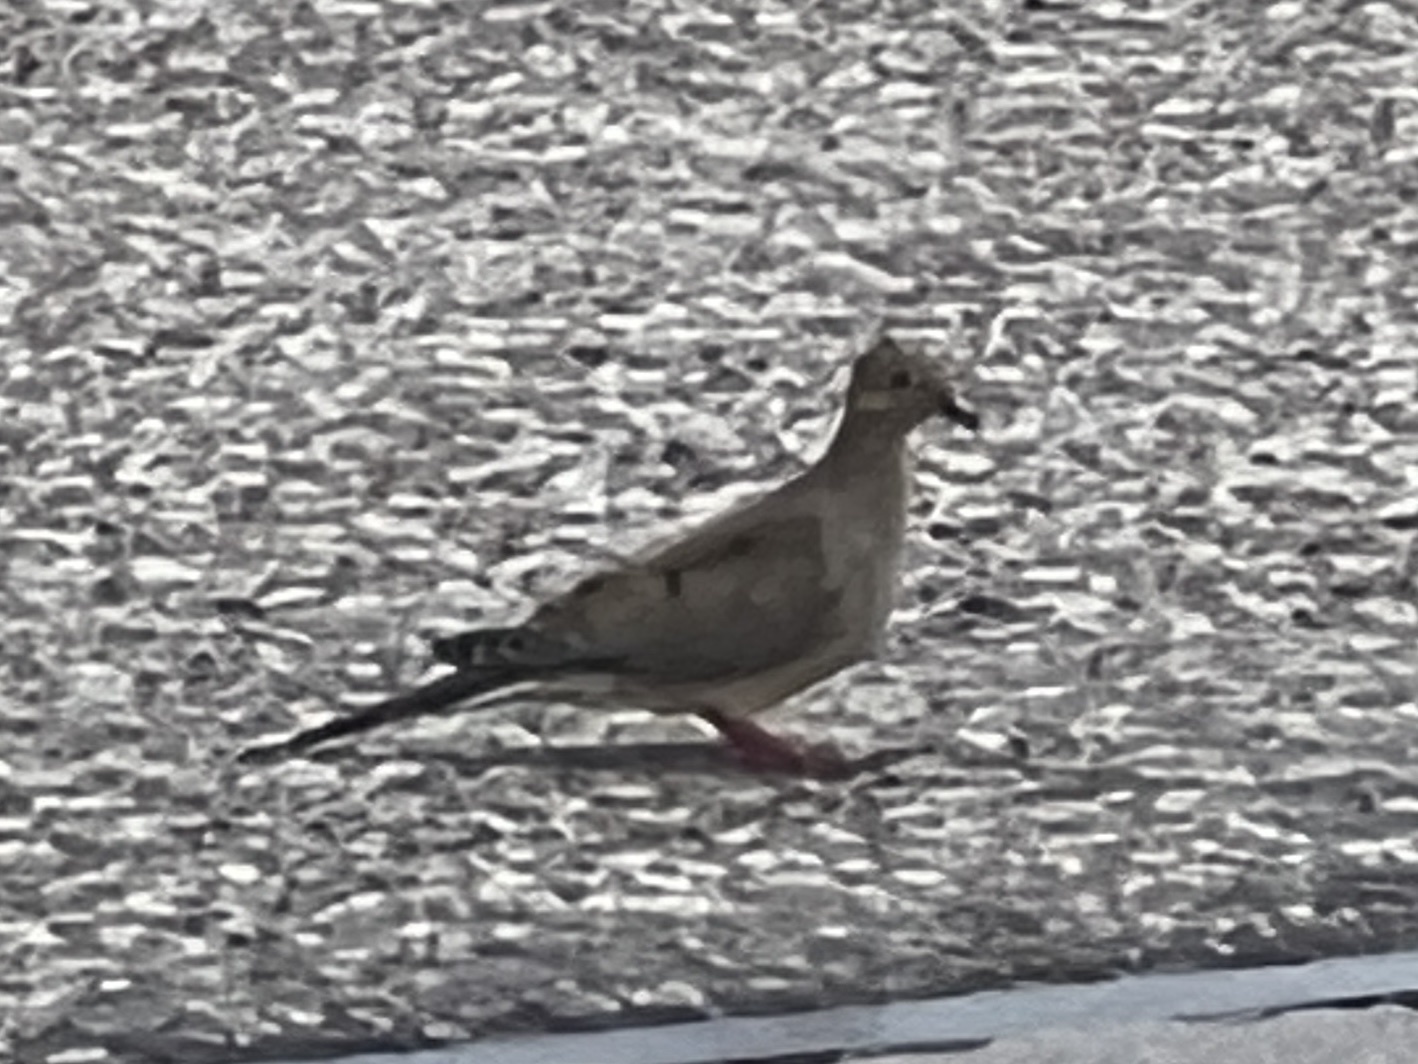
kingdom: Animalia
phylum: Chordata
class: Aves
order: Columbiformes
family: Columbidae
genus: Zenaida
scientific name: Zenaida macroura
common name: Mourning dove
